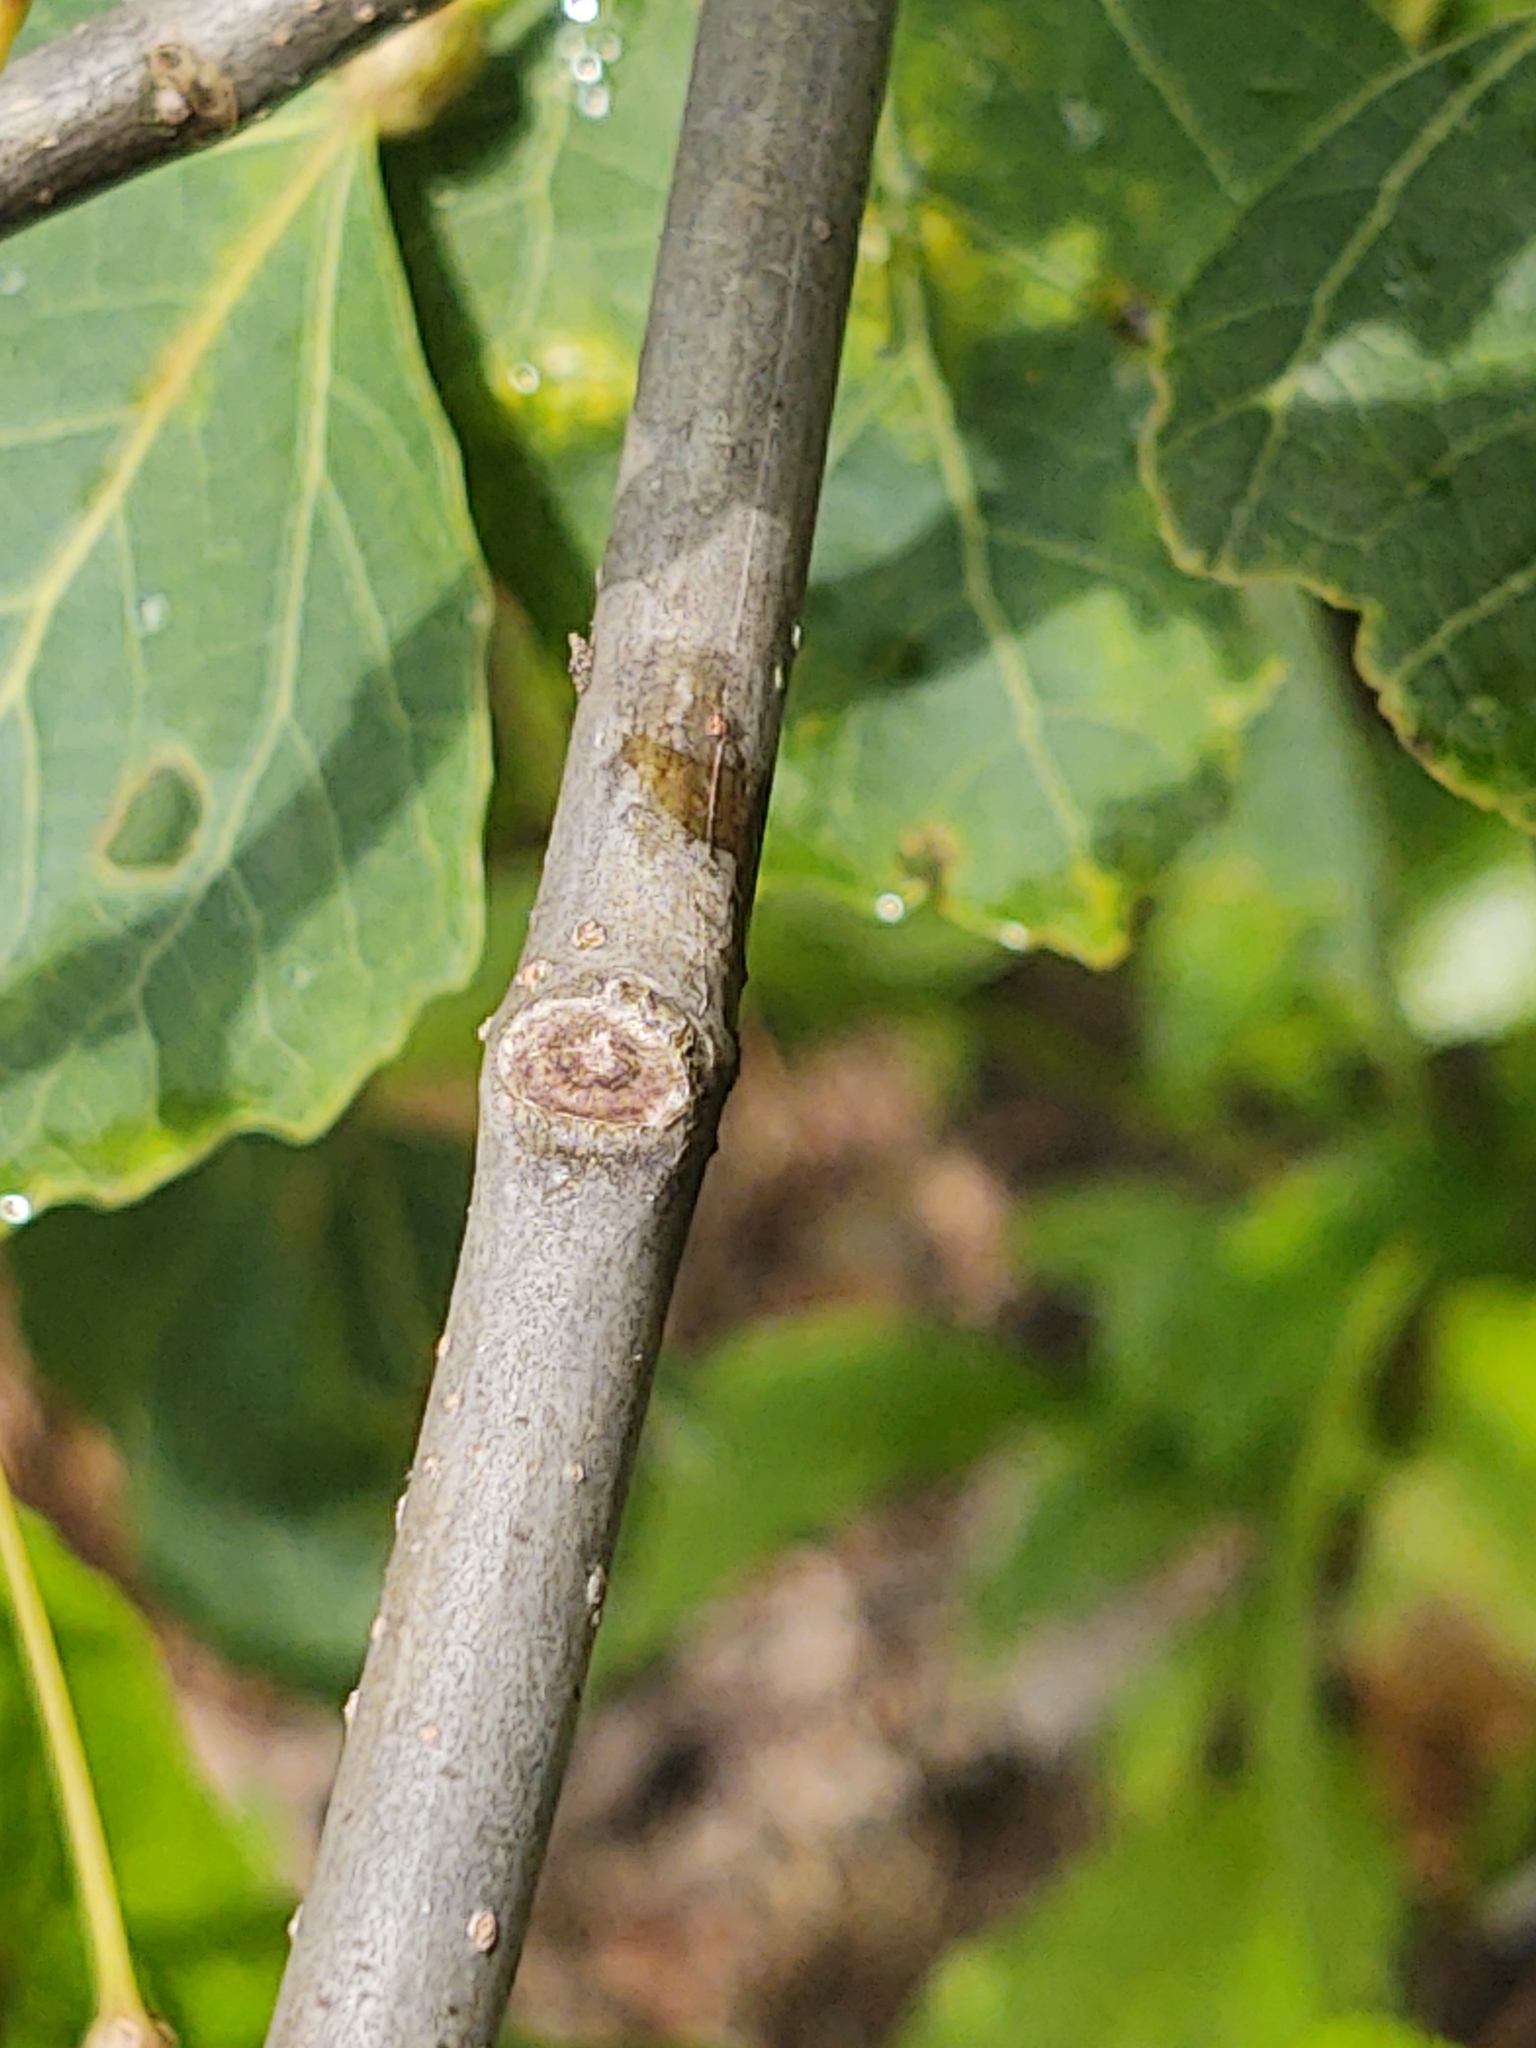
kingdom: Plantae
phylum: Tracheophyta
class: Magnoliopsida
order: Malpighiales
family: Salicaceae
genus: Populus
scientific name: Populus grandidentata
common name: Bigtooth aspen
